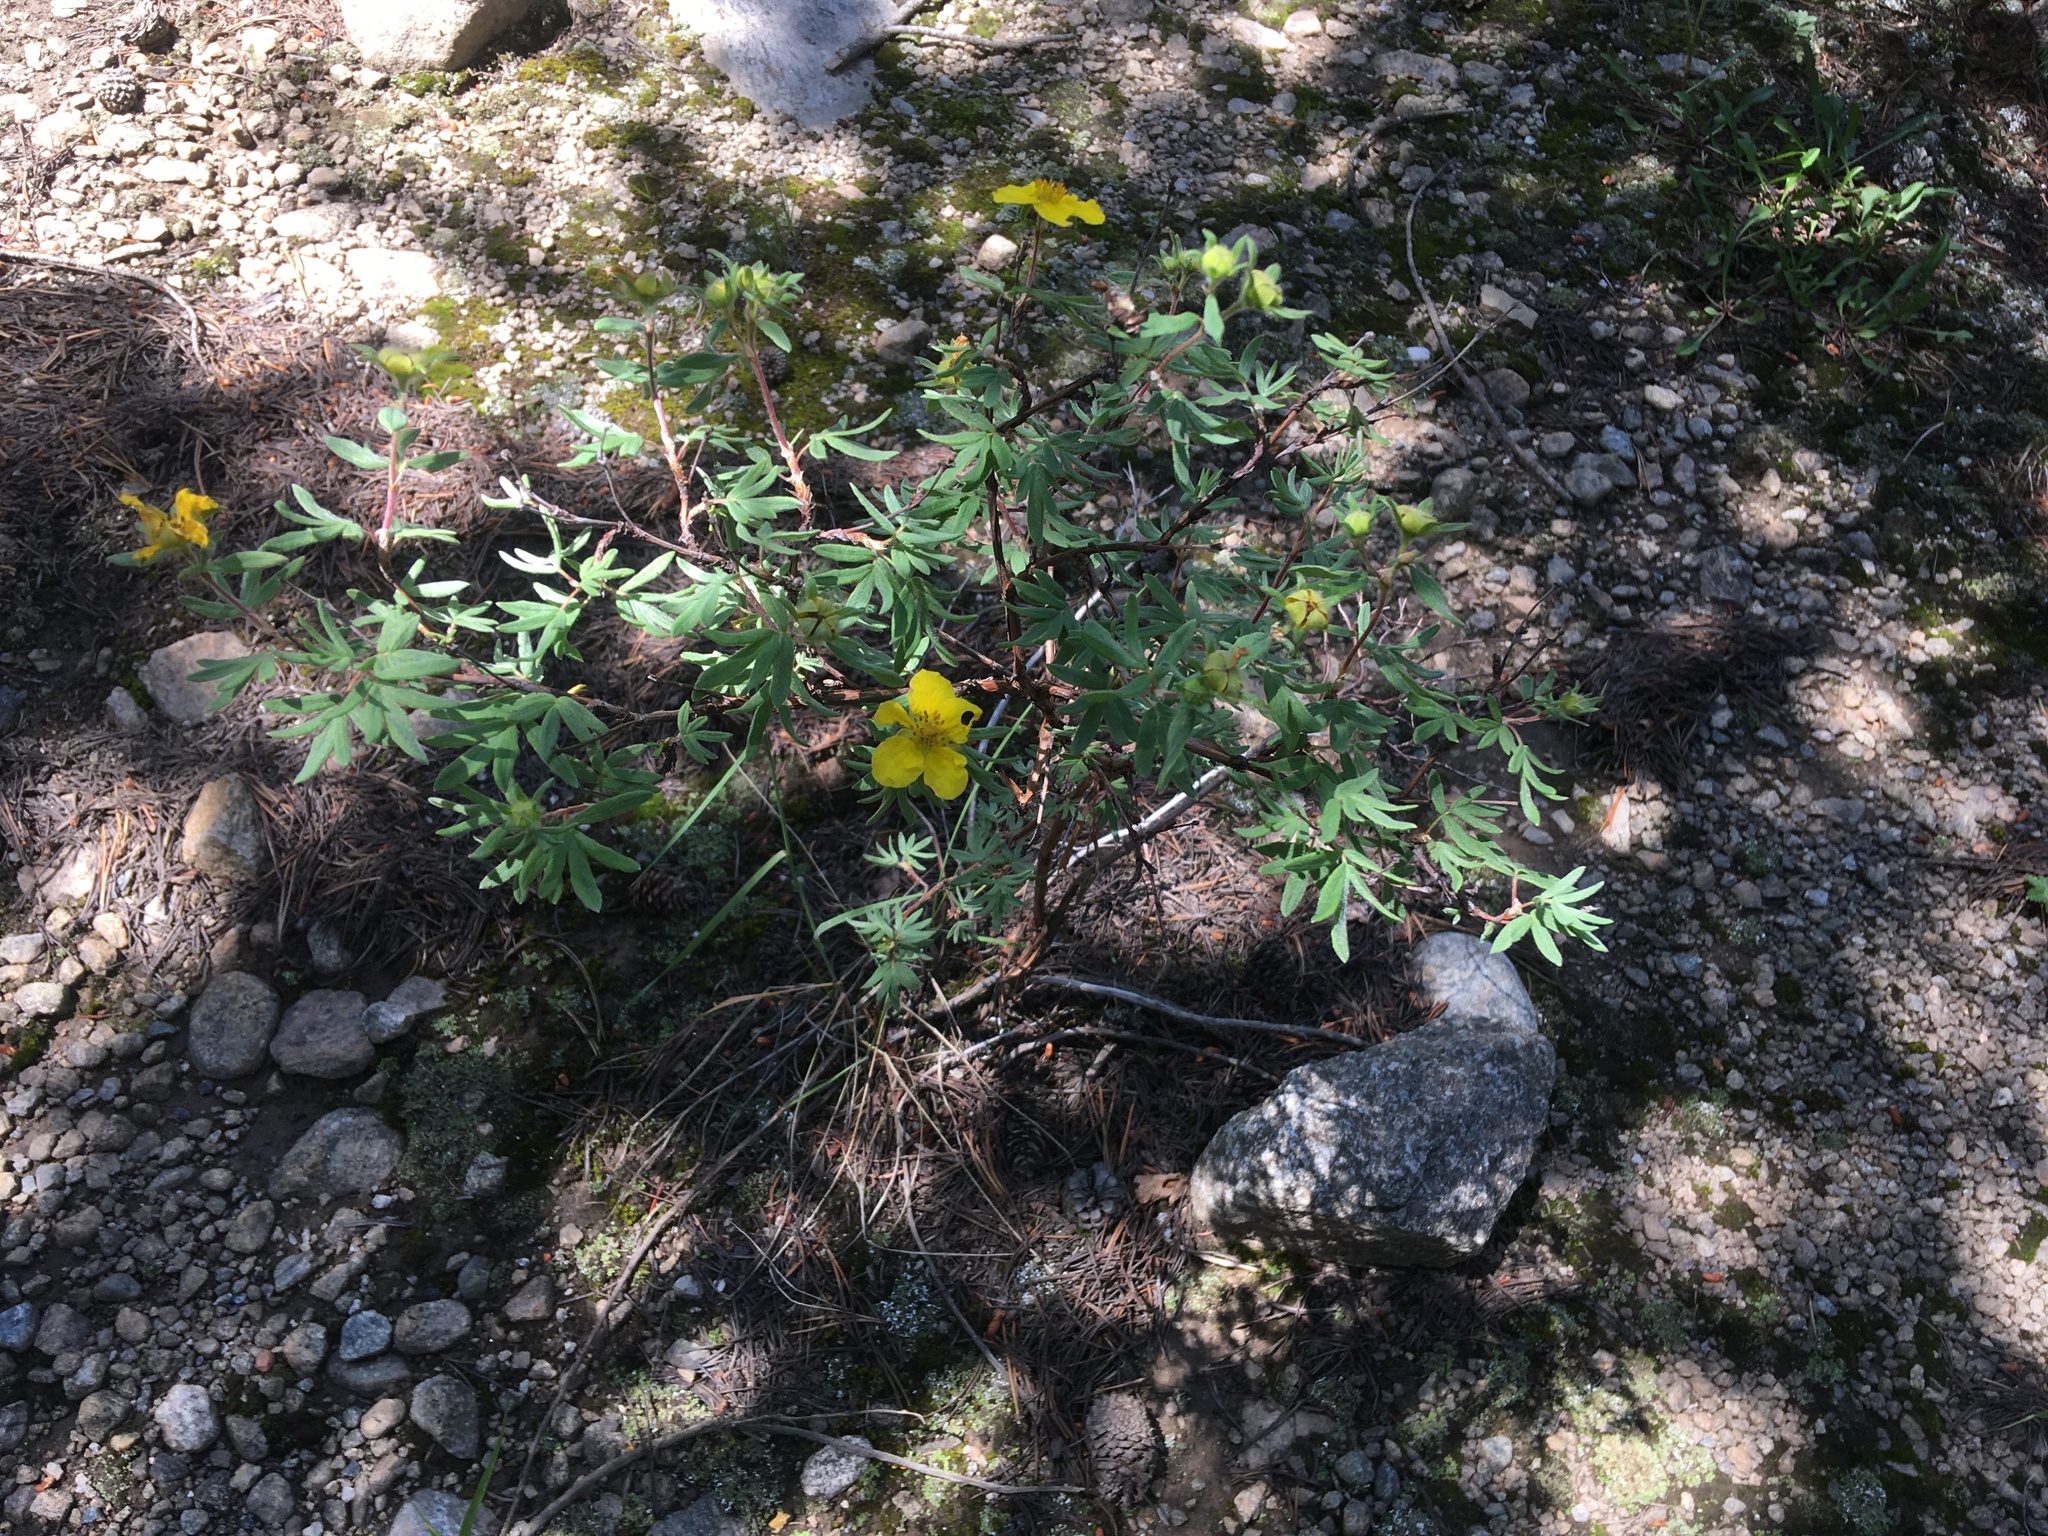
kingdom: Plantae
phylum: Tracheophyta
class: Magnoliopsida
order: Rosales
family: Rosaceae
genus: Dasiphora
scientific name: Dasiphora fruticosa
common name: Shrubby cinquefoil
